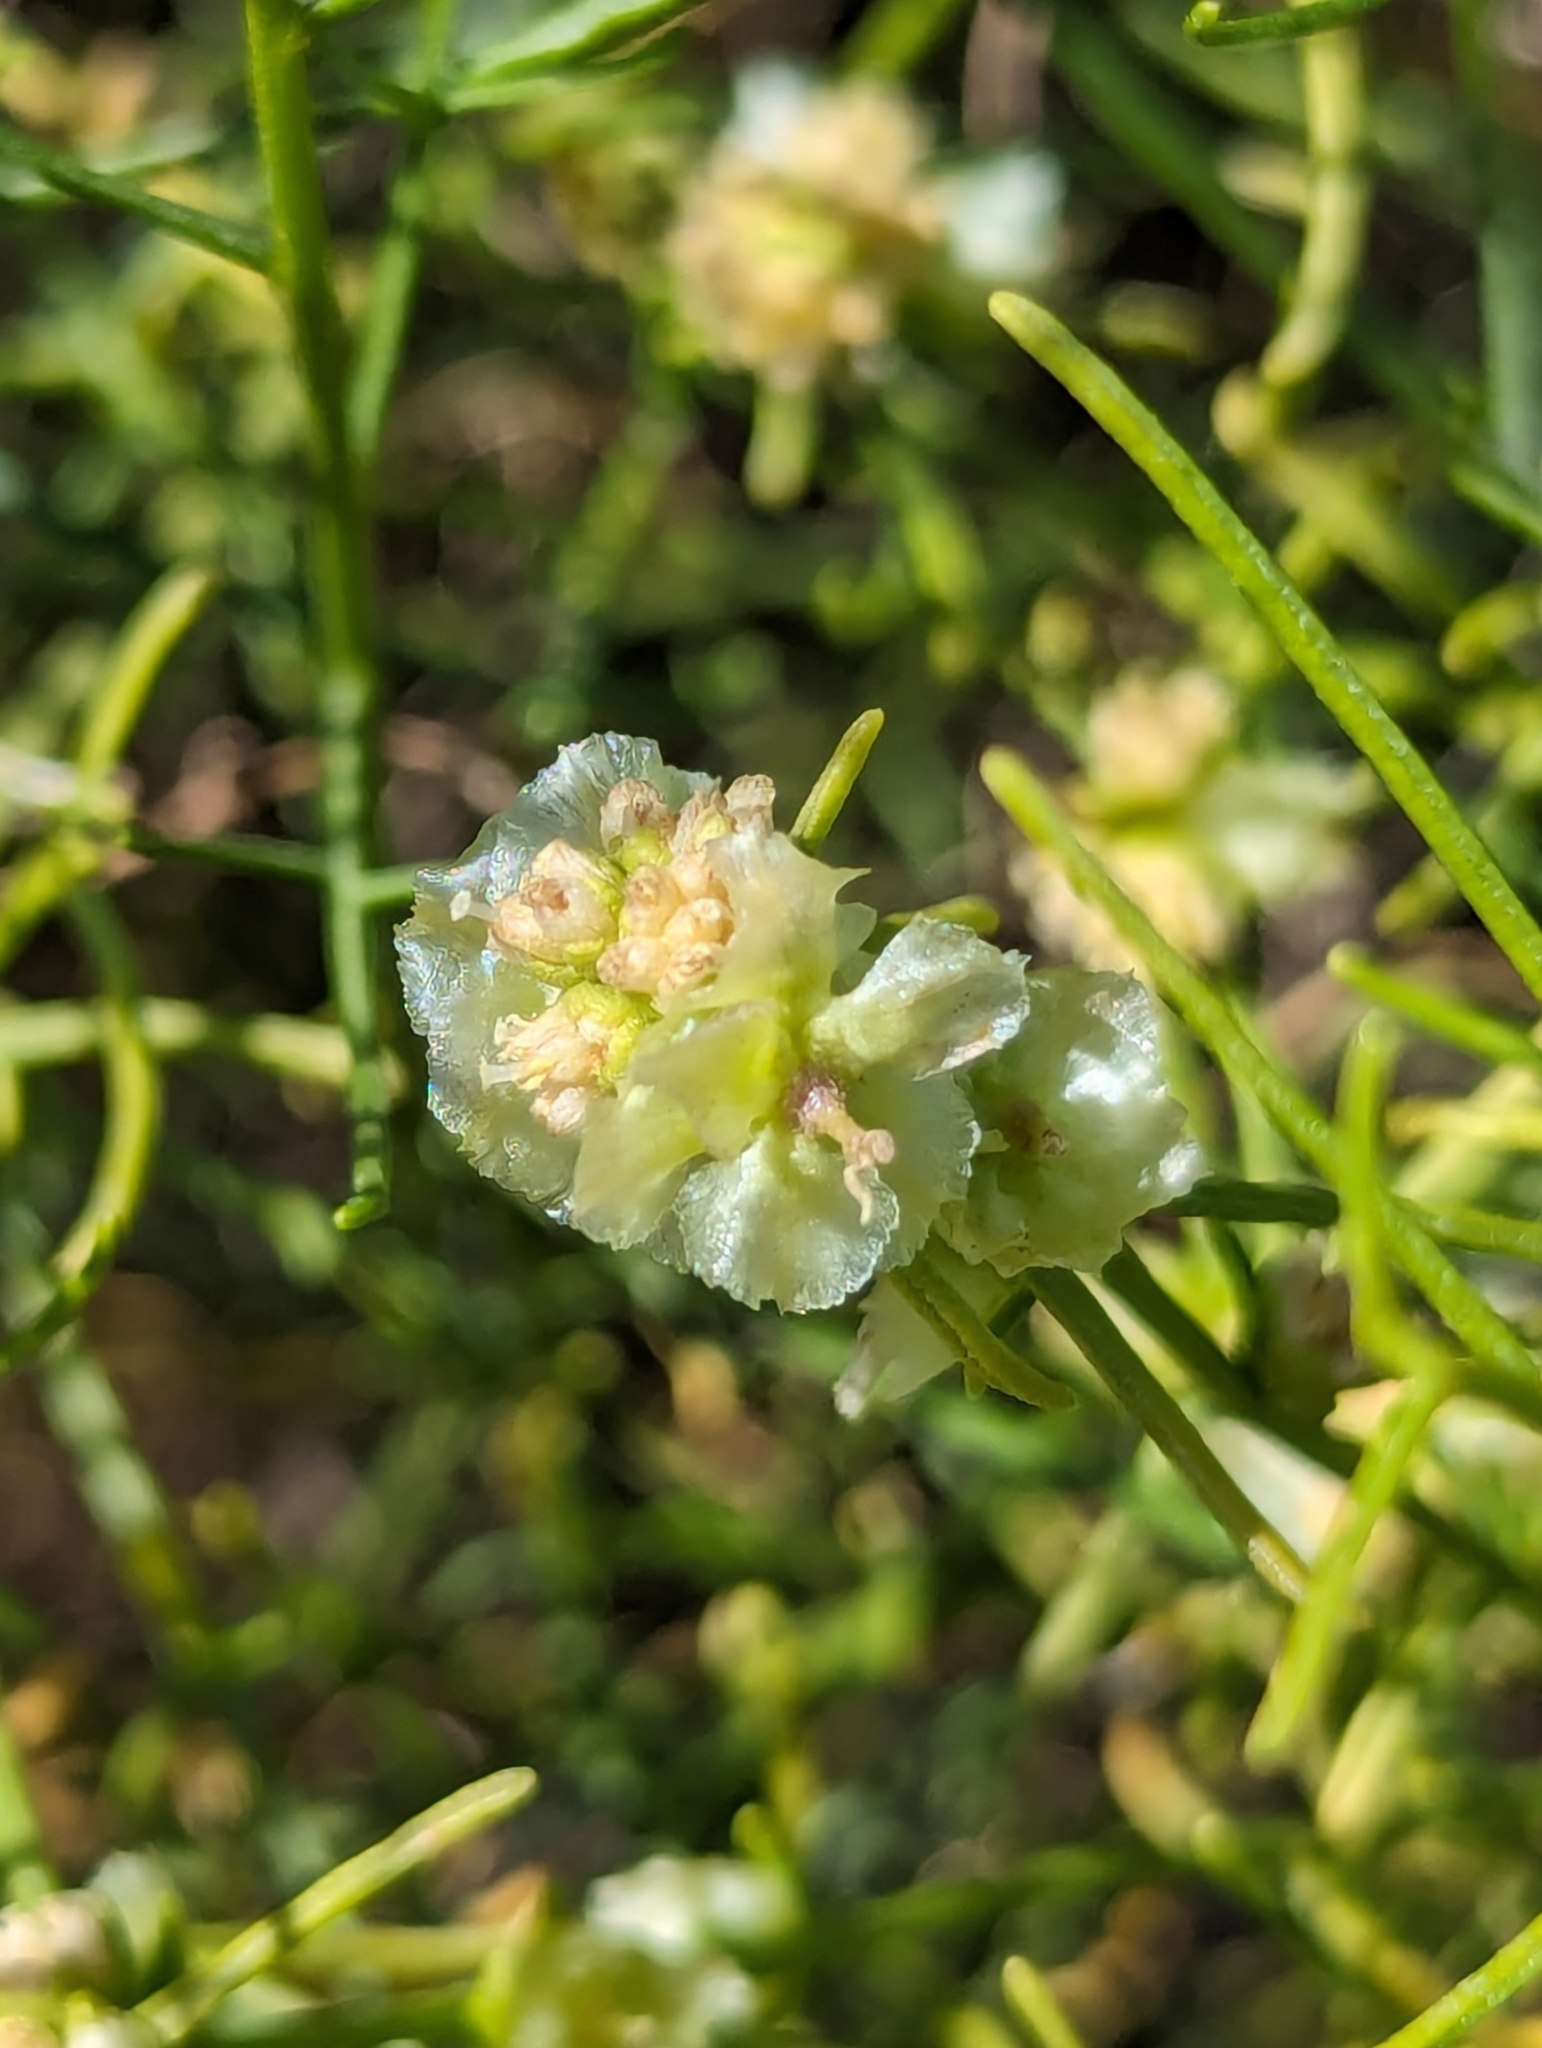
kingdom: Plantae
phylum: Tracheophyta
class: Magnoliopsida
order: Asterales
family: Asteraceae
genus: Ambrosia
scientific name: Ambrosia salsola
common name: Burrobrush
